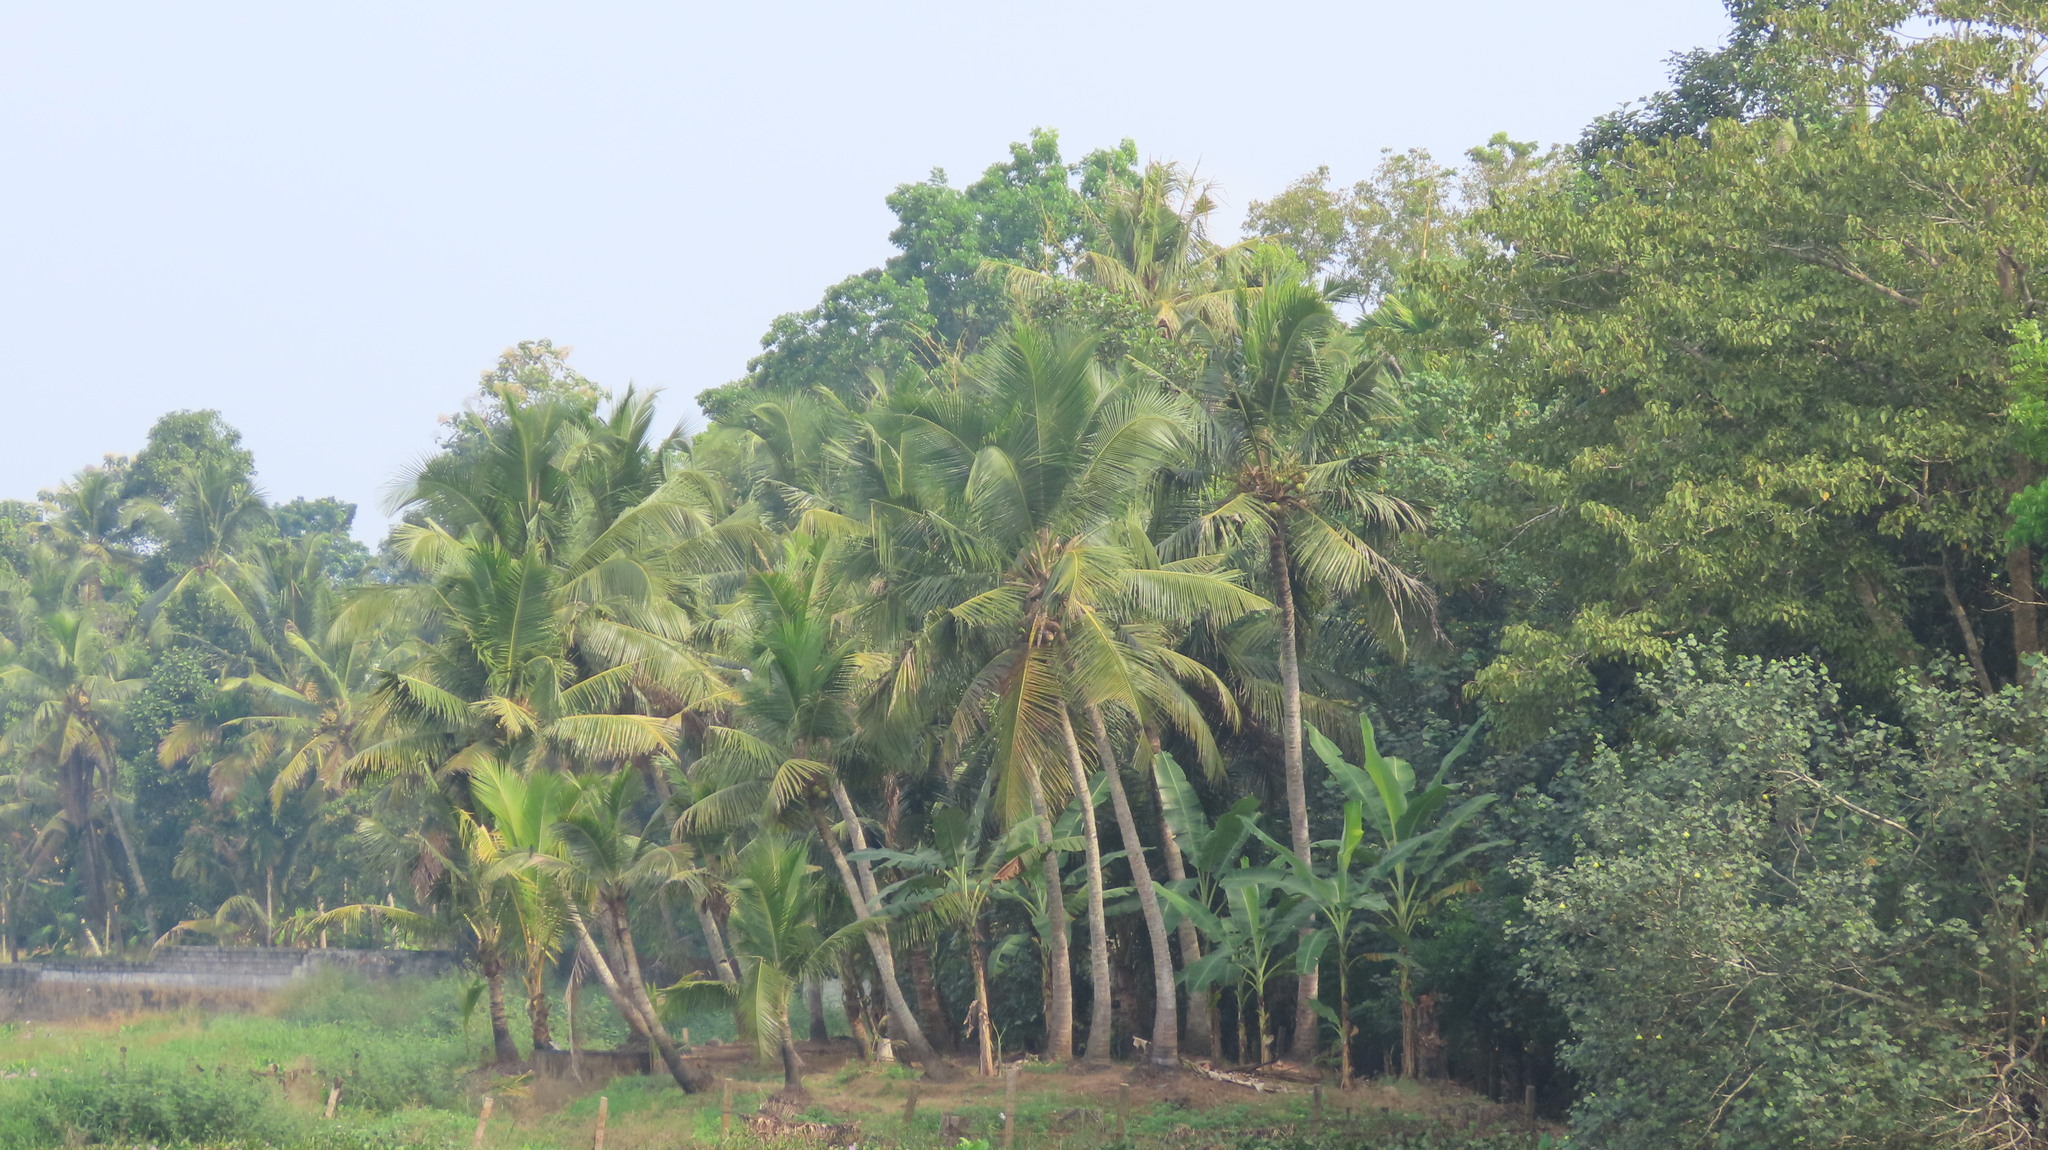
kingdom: Plantae
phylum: Tracheophyta
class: Liliopsida
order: Arecales
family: Arecaceae
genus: Cocos
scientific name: Cocos nucifera
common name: Coconut palm
